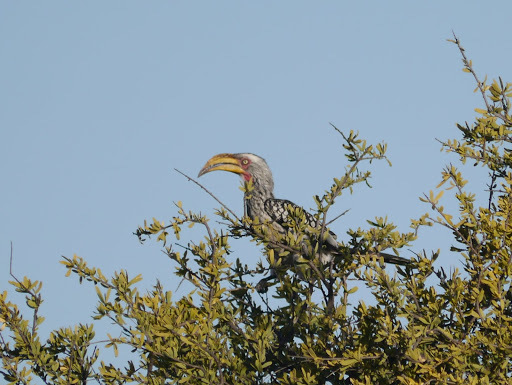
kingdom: Animalia
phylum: Chordata
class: Aves
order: Bucerotiformes
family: Bucerotidae
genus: Tockus
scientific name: Tockus leucomelas
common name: Southern yellow-billed hornbill
